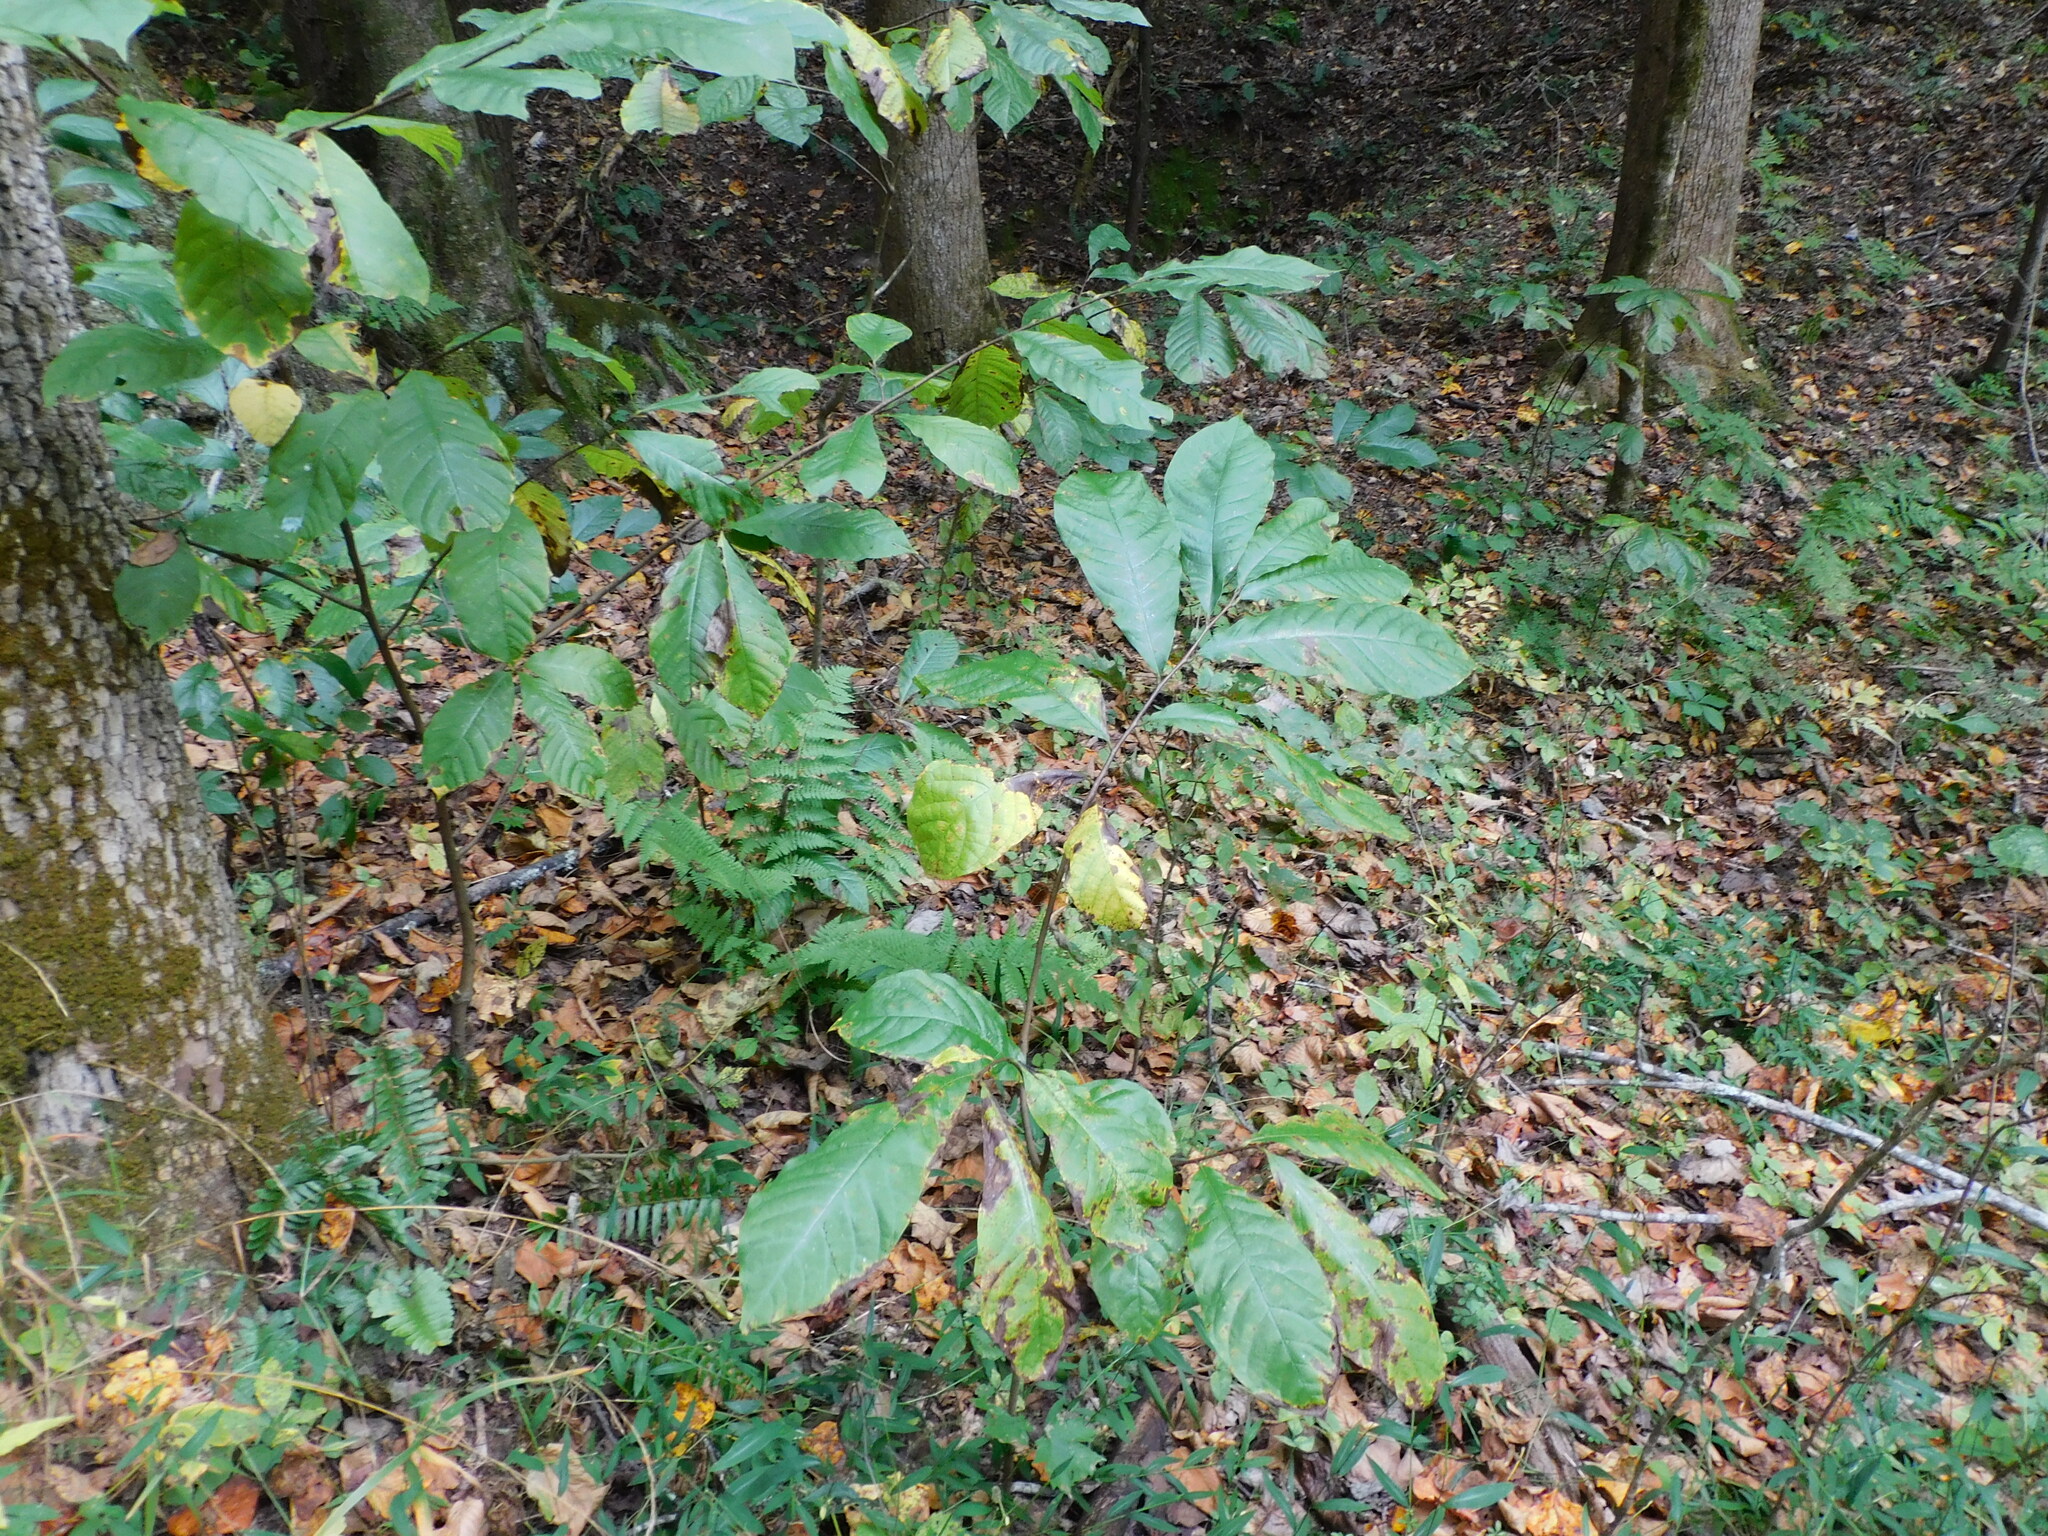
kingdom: Plantae
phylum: Tracheophyta
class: Magnoliopsida
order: Magnoliales
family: Annonaceae
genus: Asimina
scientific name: Asimina triloba
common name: Dog-banana
